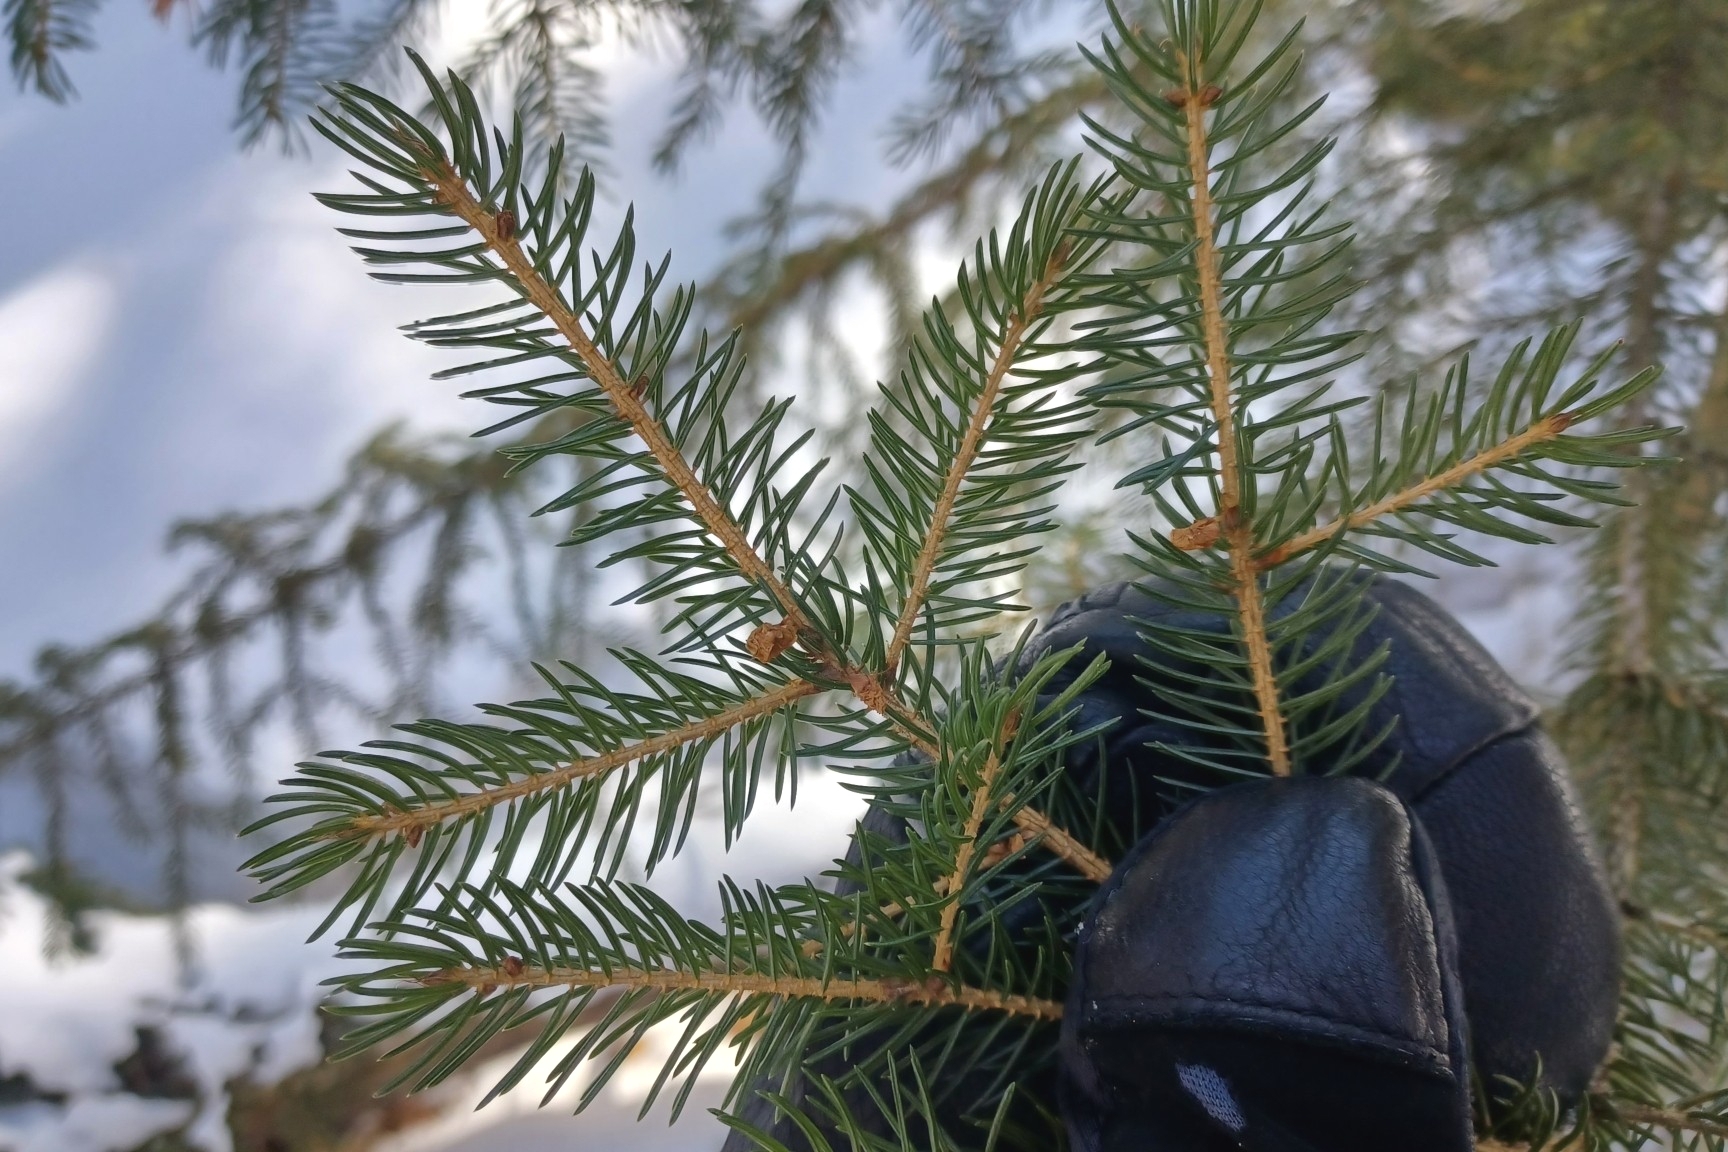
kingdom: Plantae
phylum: Tracheophyta
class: Pinopsida
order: Pinales
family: Pinaceae
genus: Picea
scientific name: Picea rubens
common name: Red spruce
